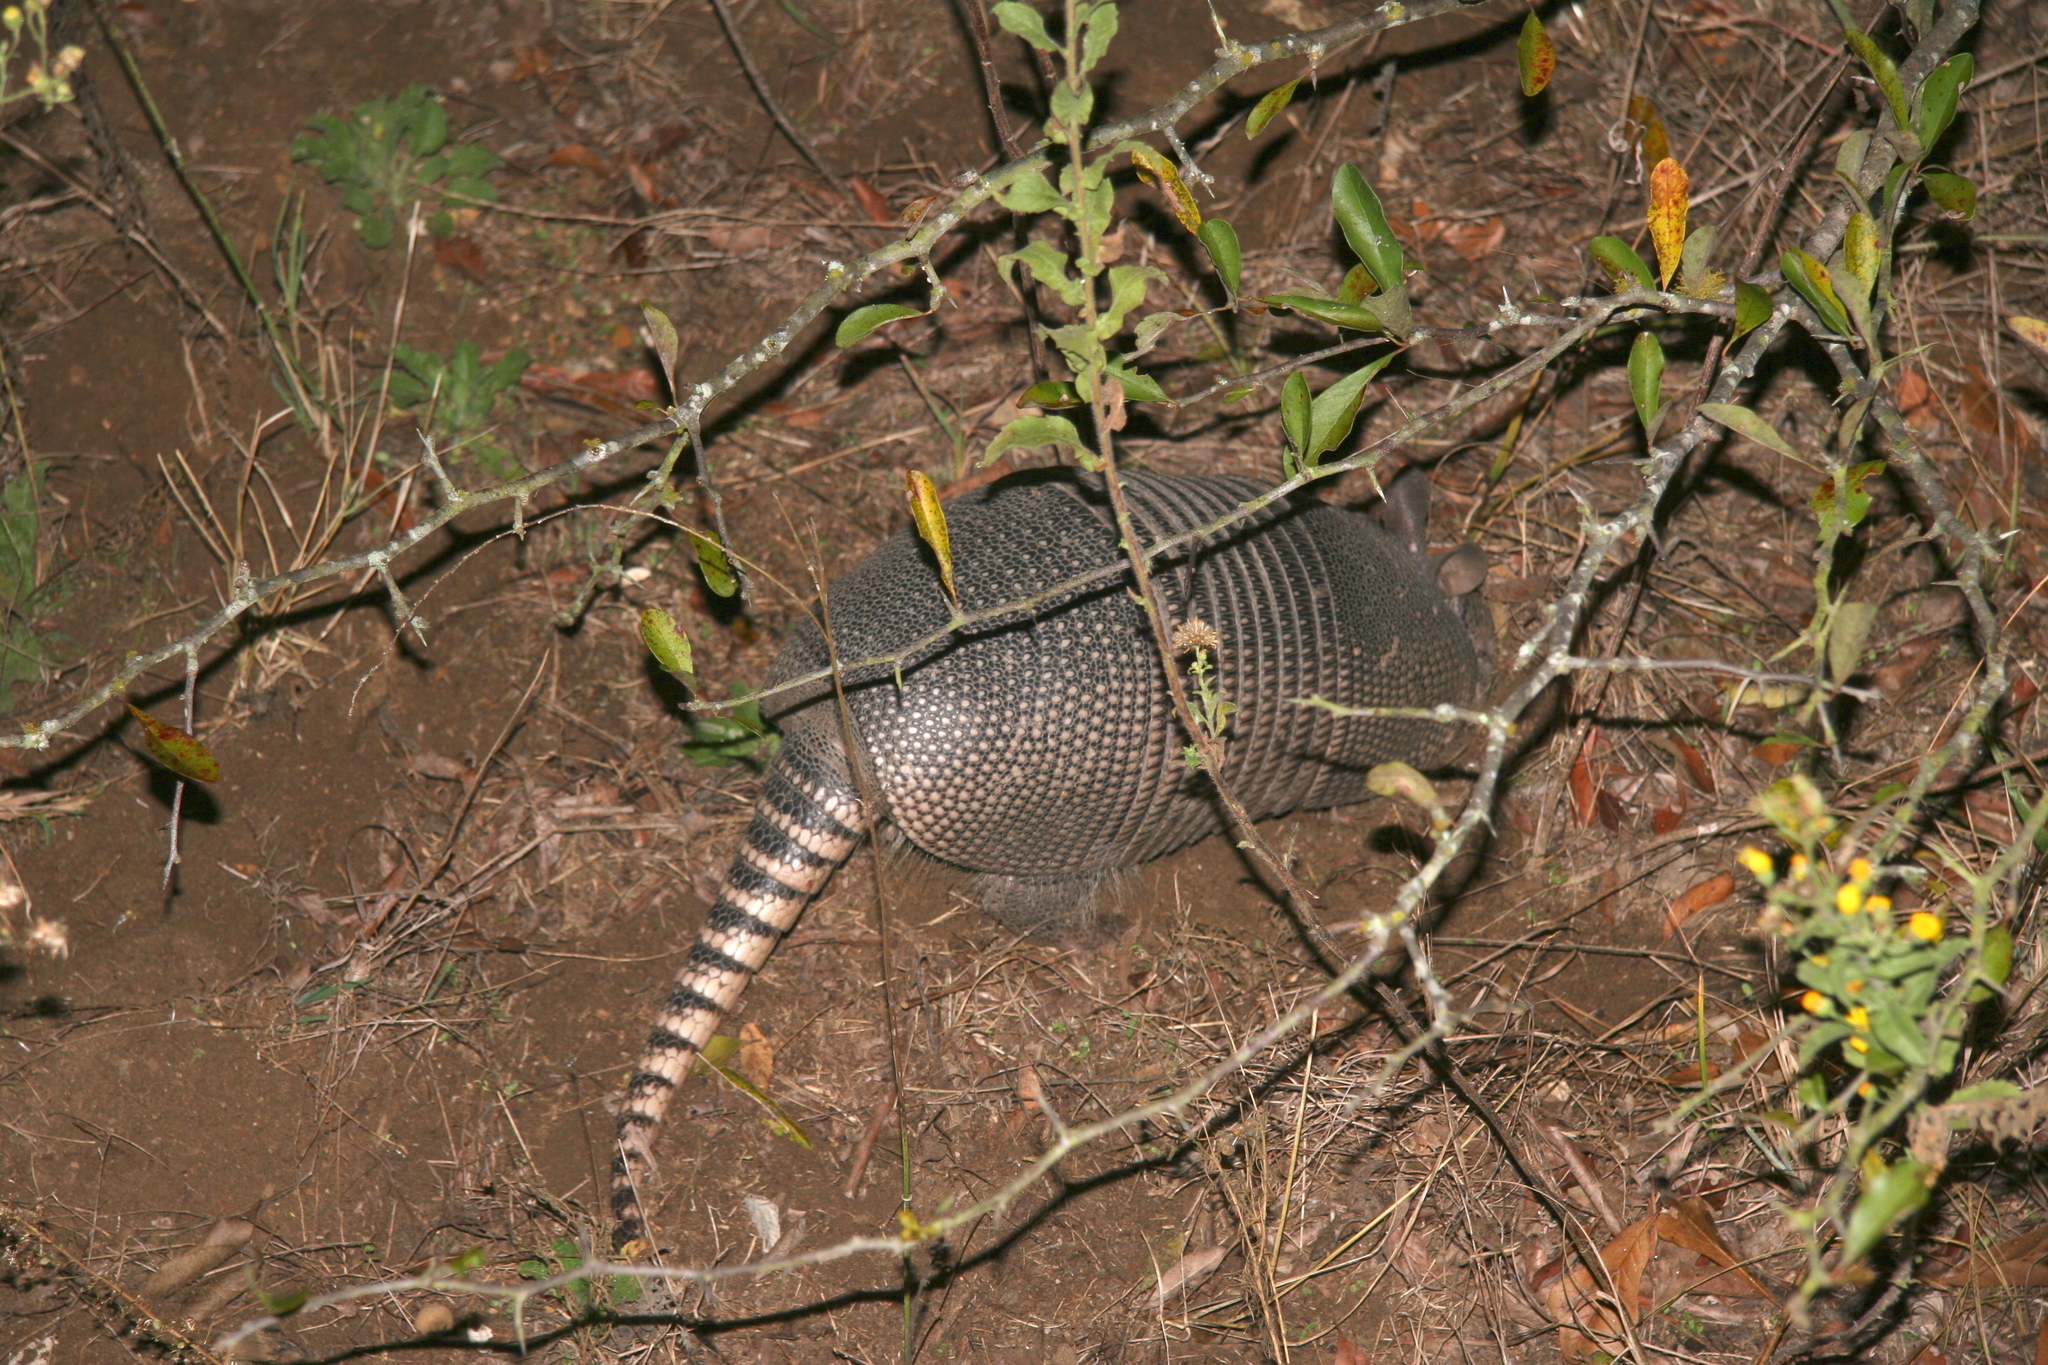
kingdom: Animalia
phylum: Chordata
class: Mammalia
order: Cingulata
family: Dasypodidae
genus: Dasypus
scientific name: Dasypus novemcinctus
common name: Nine-banded armadillo
